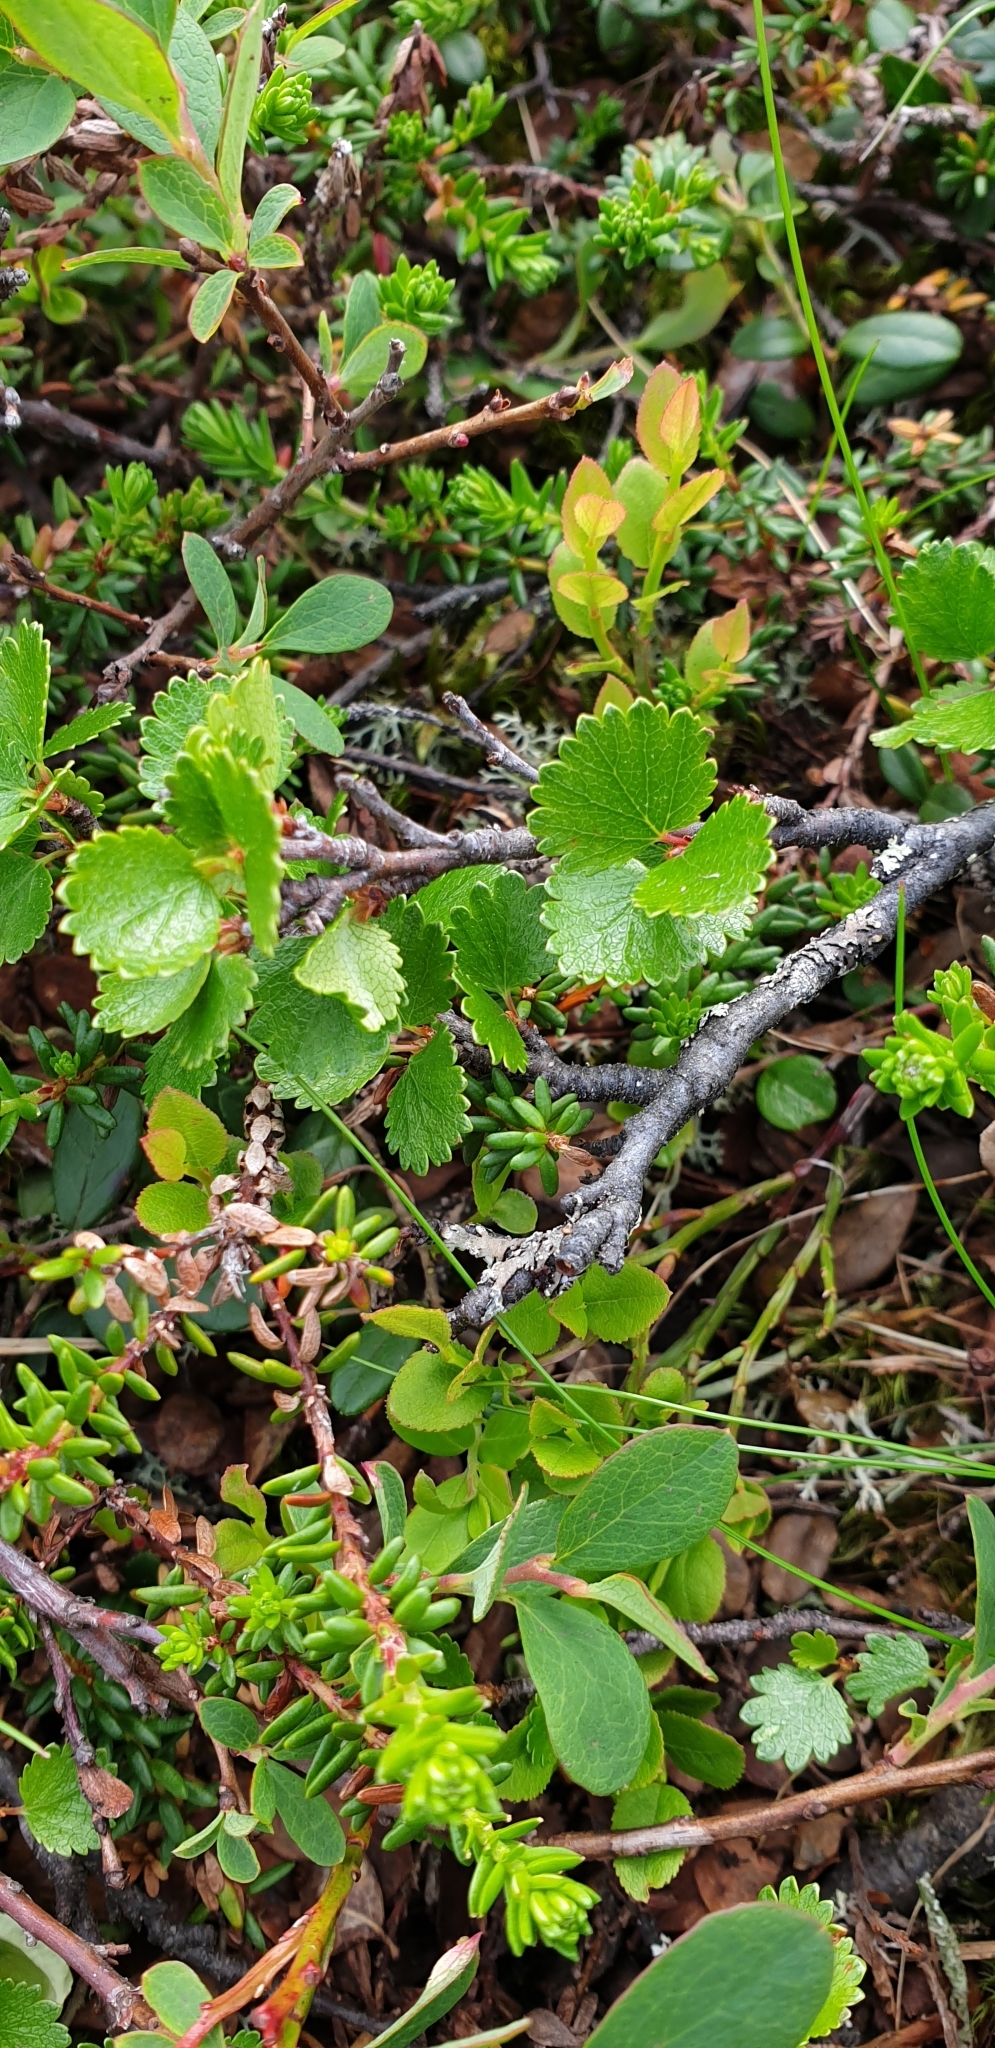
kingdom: Plantae
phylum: Tracheophyta
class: Magnoliopsida
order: Fagales
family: Betulaceae
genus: Betula
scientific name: Betula nana
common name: Arctic dwarf birch
